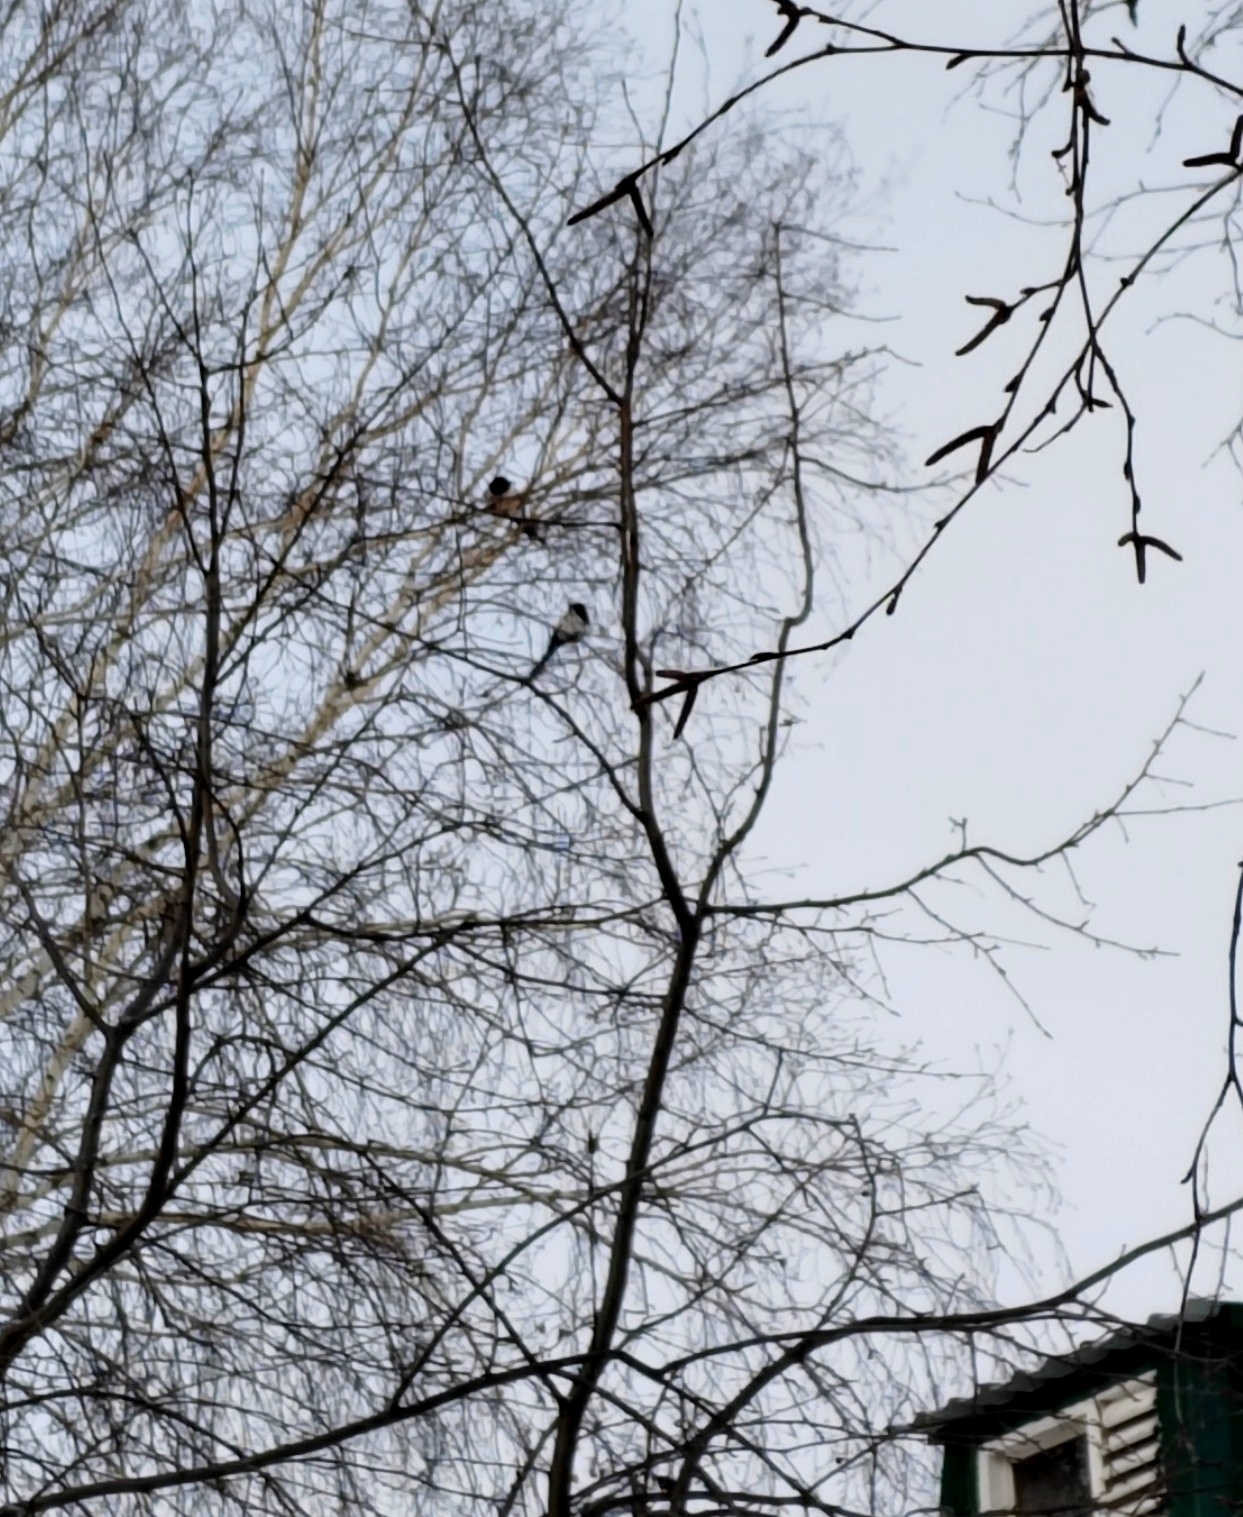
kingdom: Animalia
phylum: Chordata
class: Aves
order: Passeriformes
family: Corvidae
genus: Pica
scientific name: Pica pica
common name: Eurasian magpie
